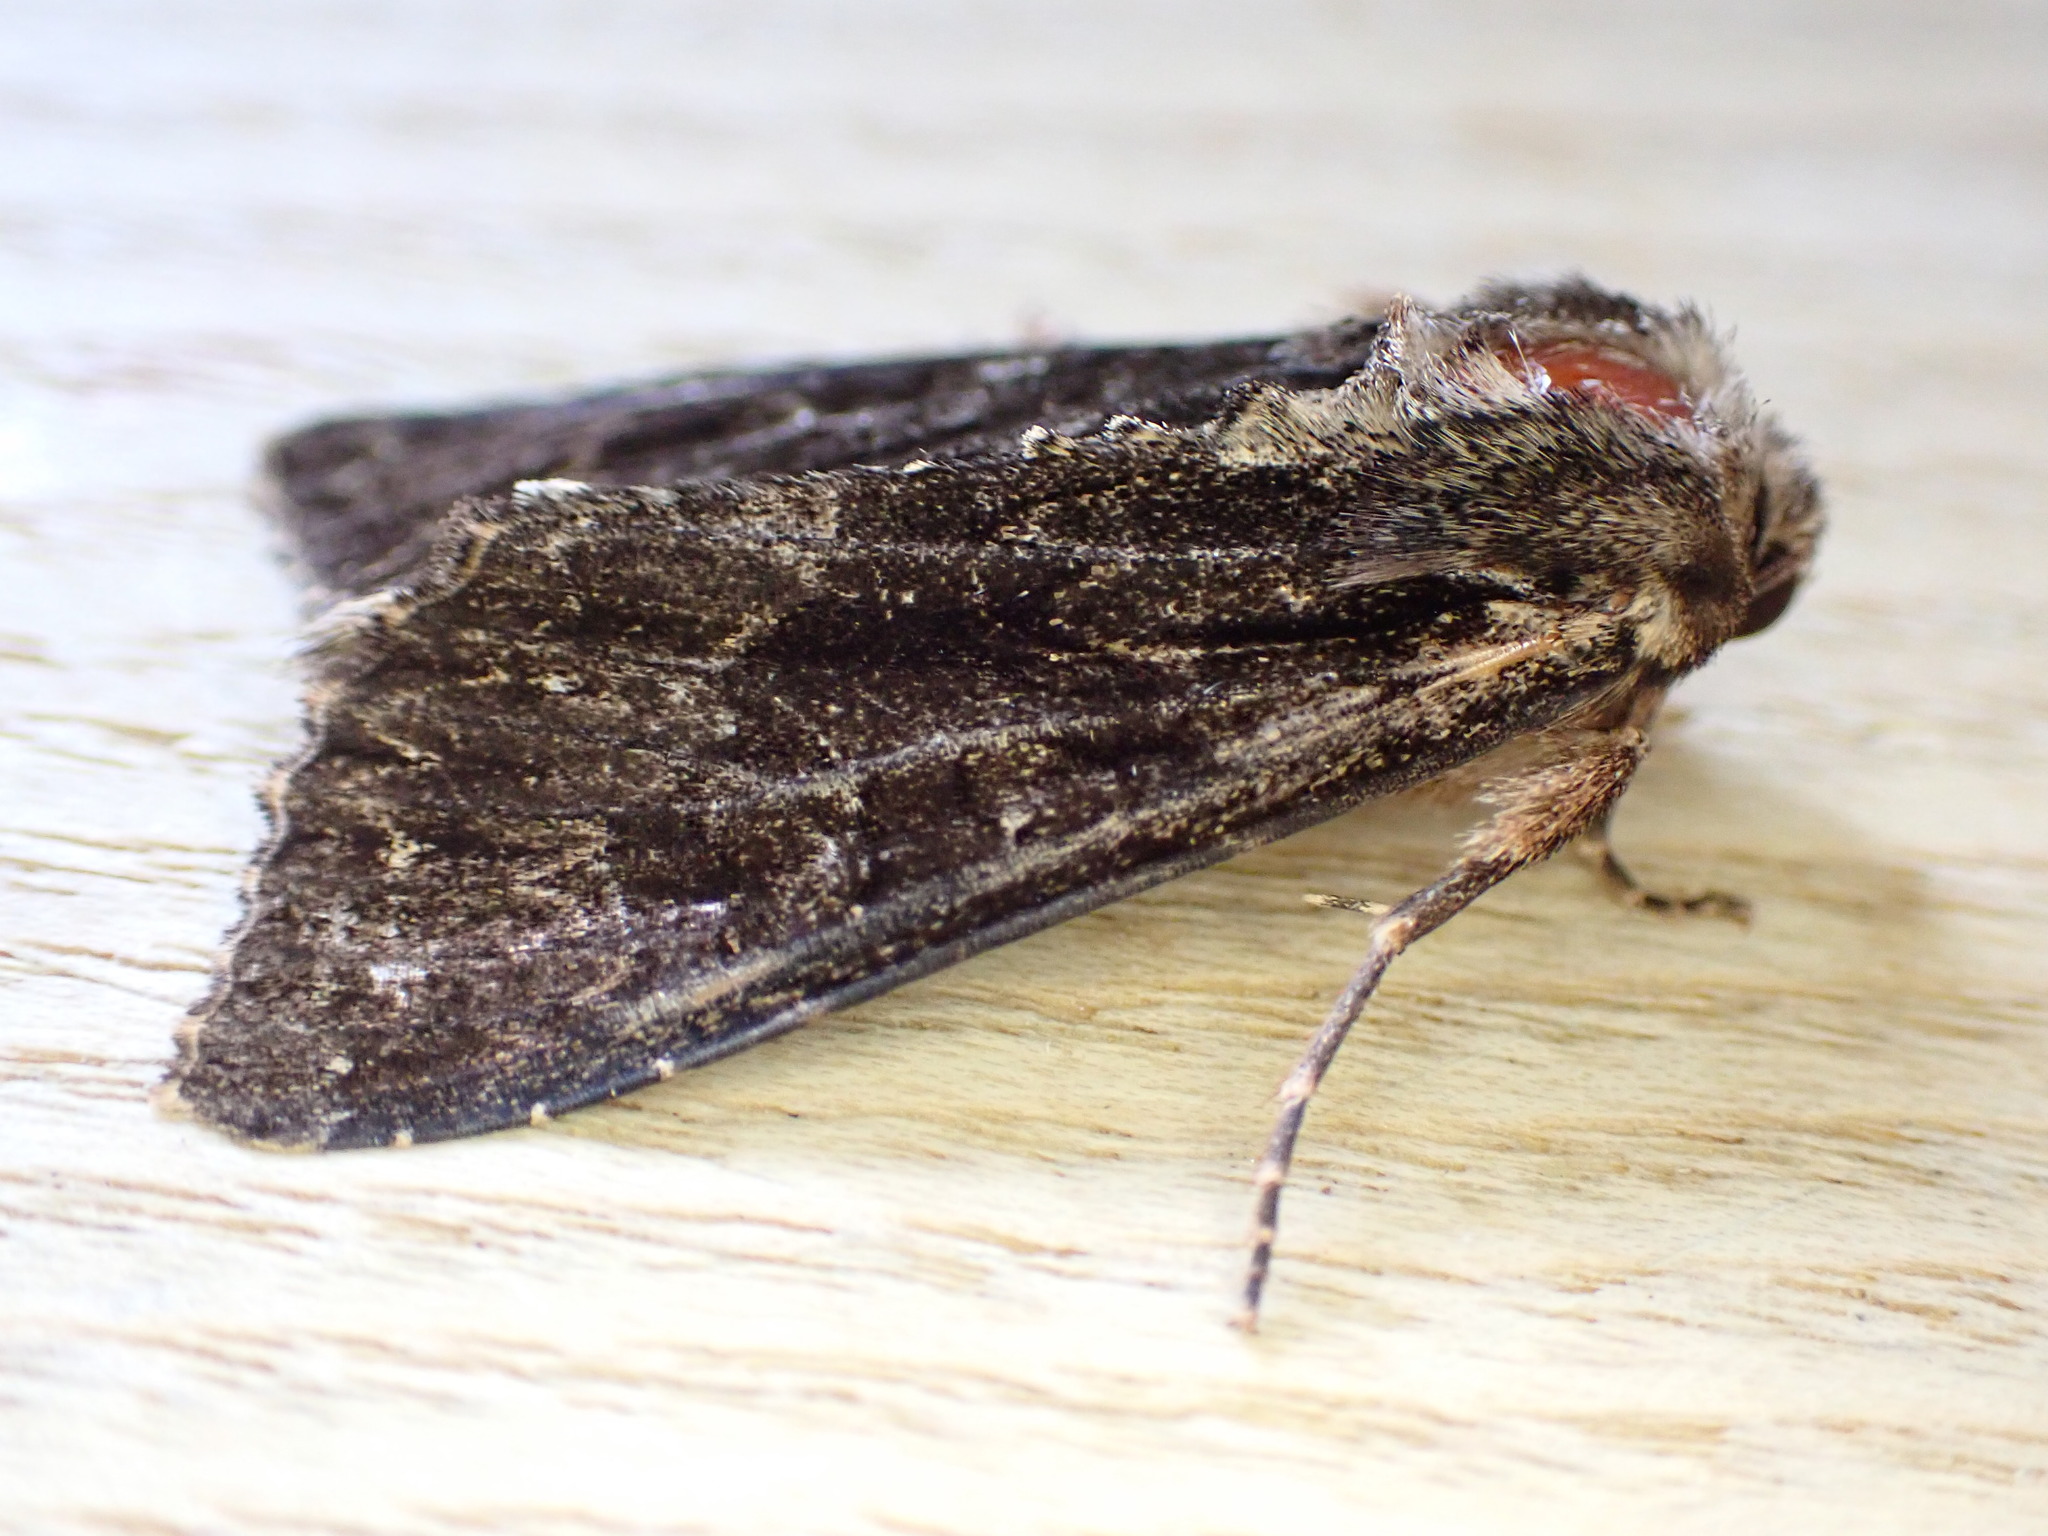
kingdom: Animalia
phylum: Arthropoda
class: Insecta
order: Lepidoptera
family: Noctuidae
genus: Apamea
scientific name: Apamea monoglypha
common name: Dark arches
